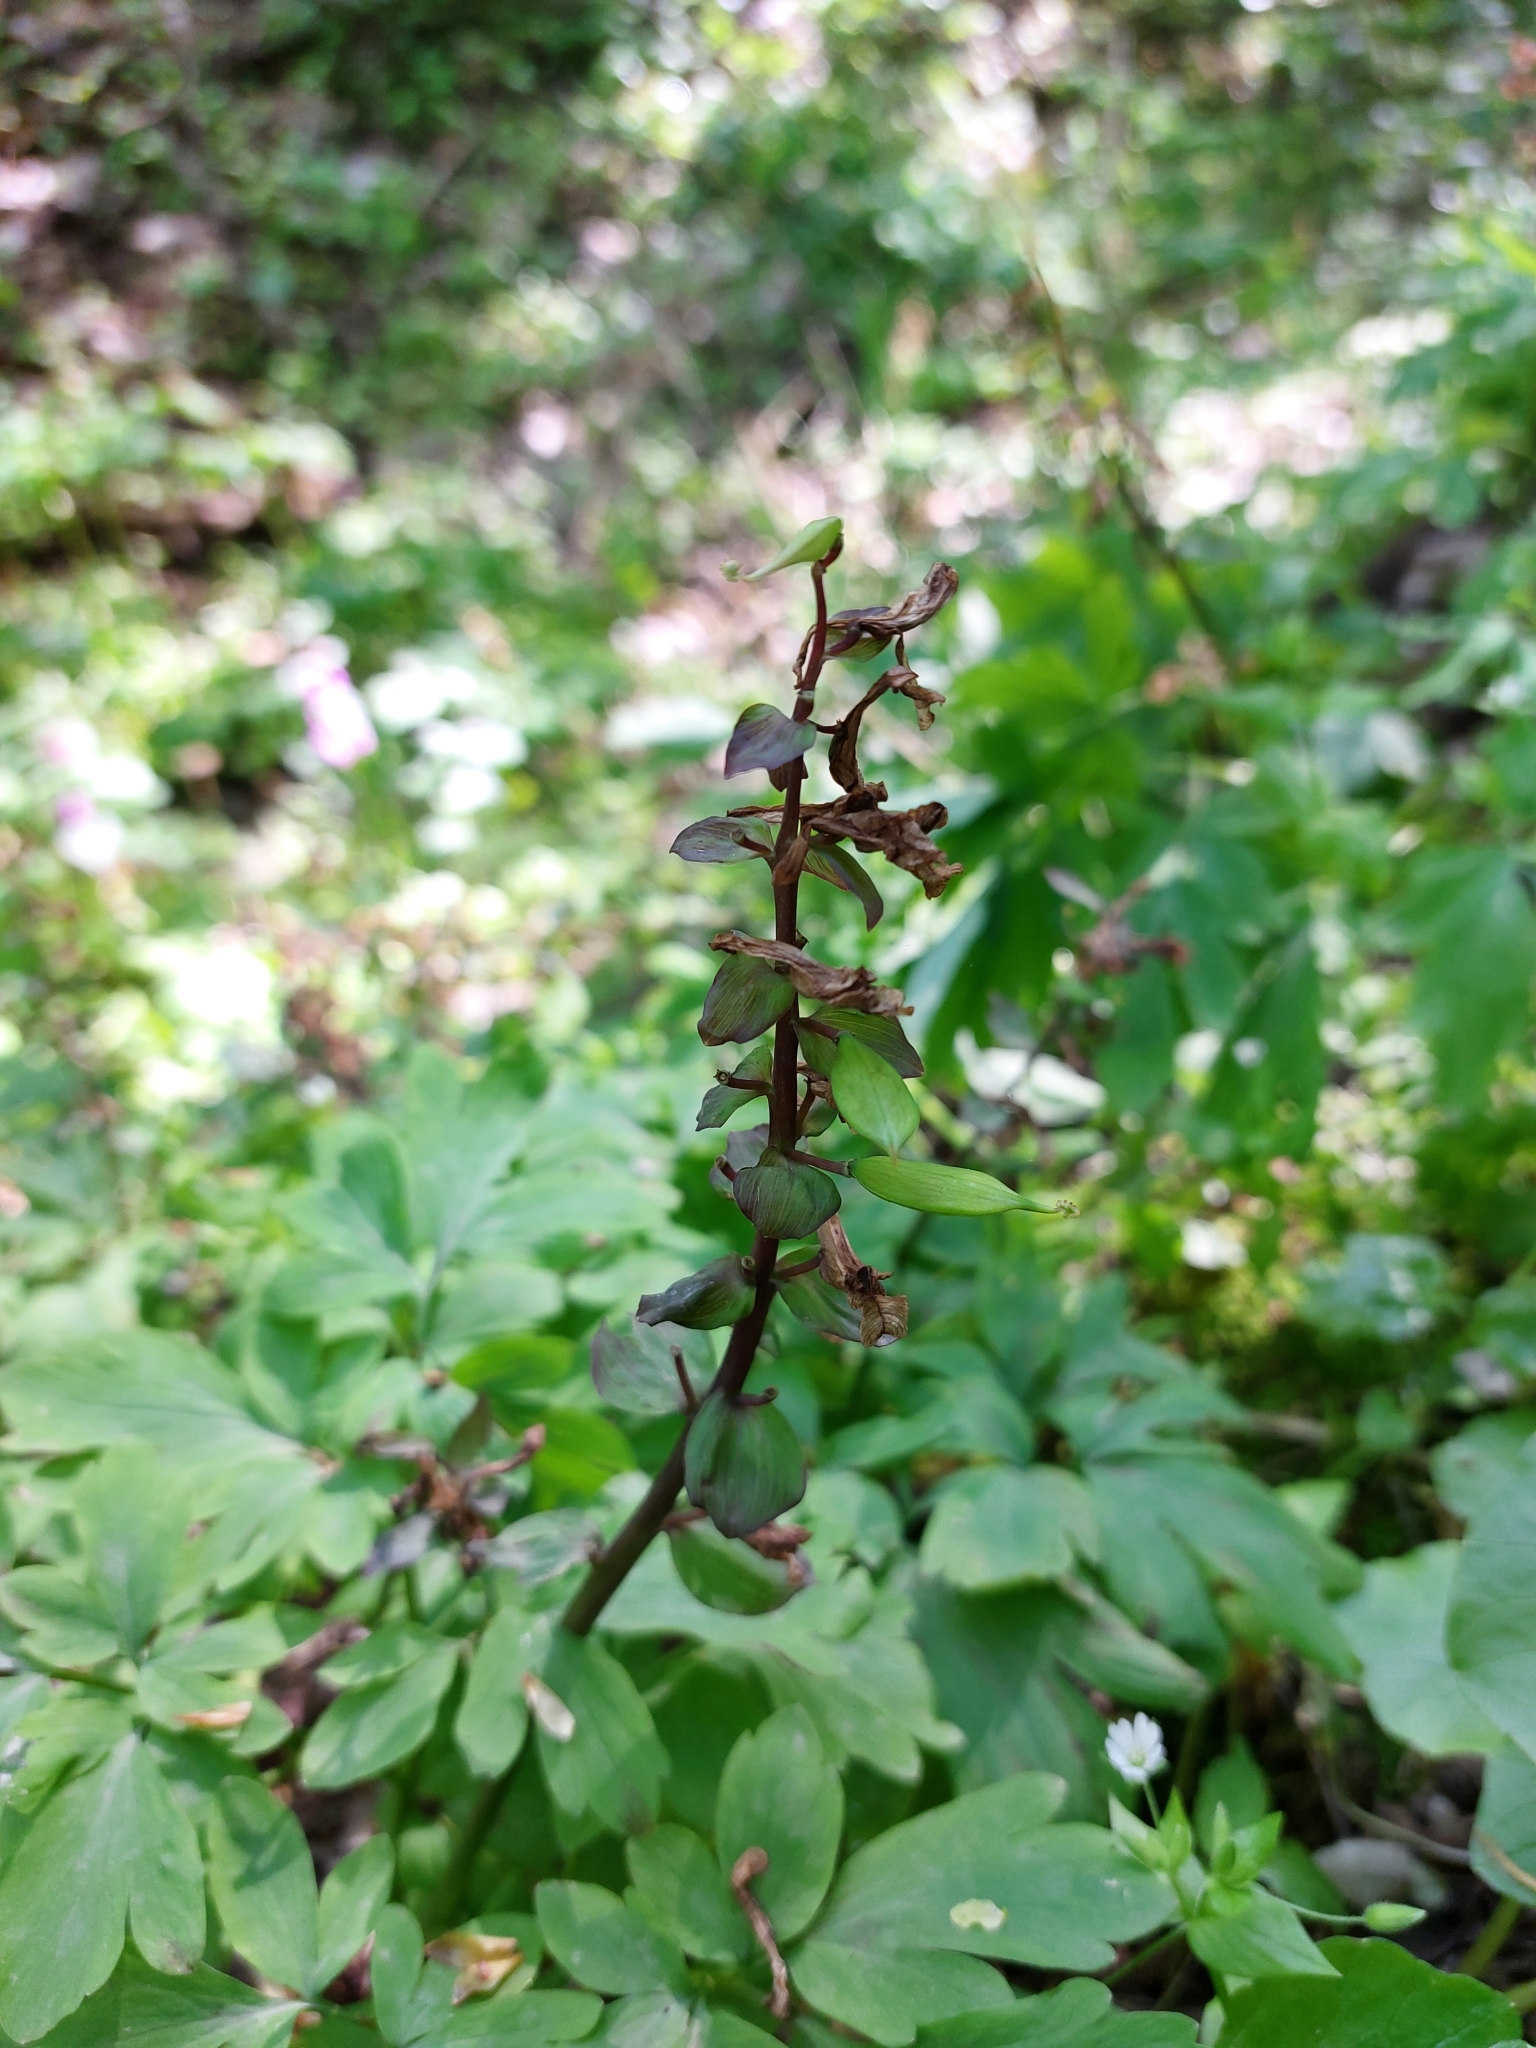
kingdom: Plantae
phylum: Tracheophyta
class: Magnoliopsida
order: Ranunculales
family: Papaveraceae
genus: Corydalis
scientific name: Corydalis cava
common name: Hollowroot
